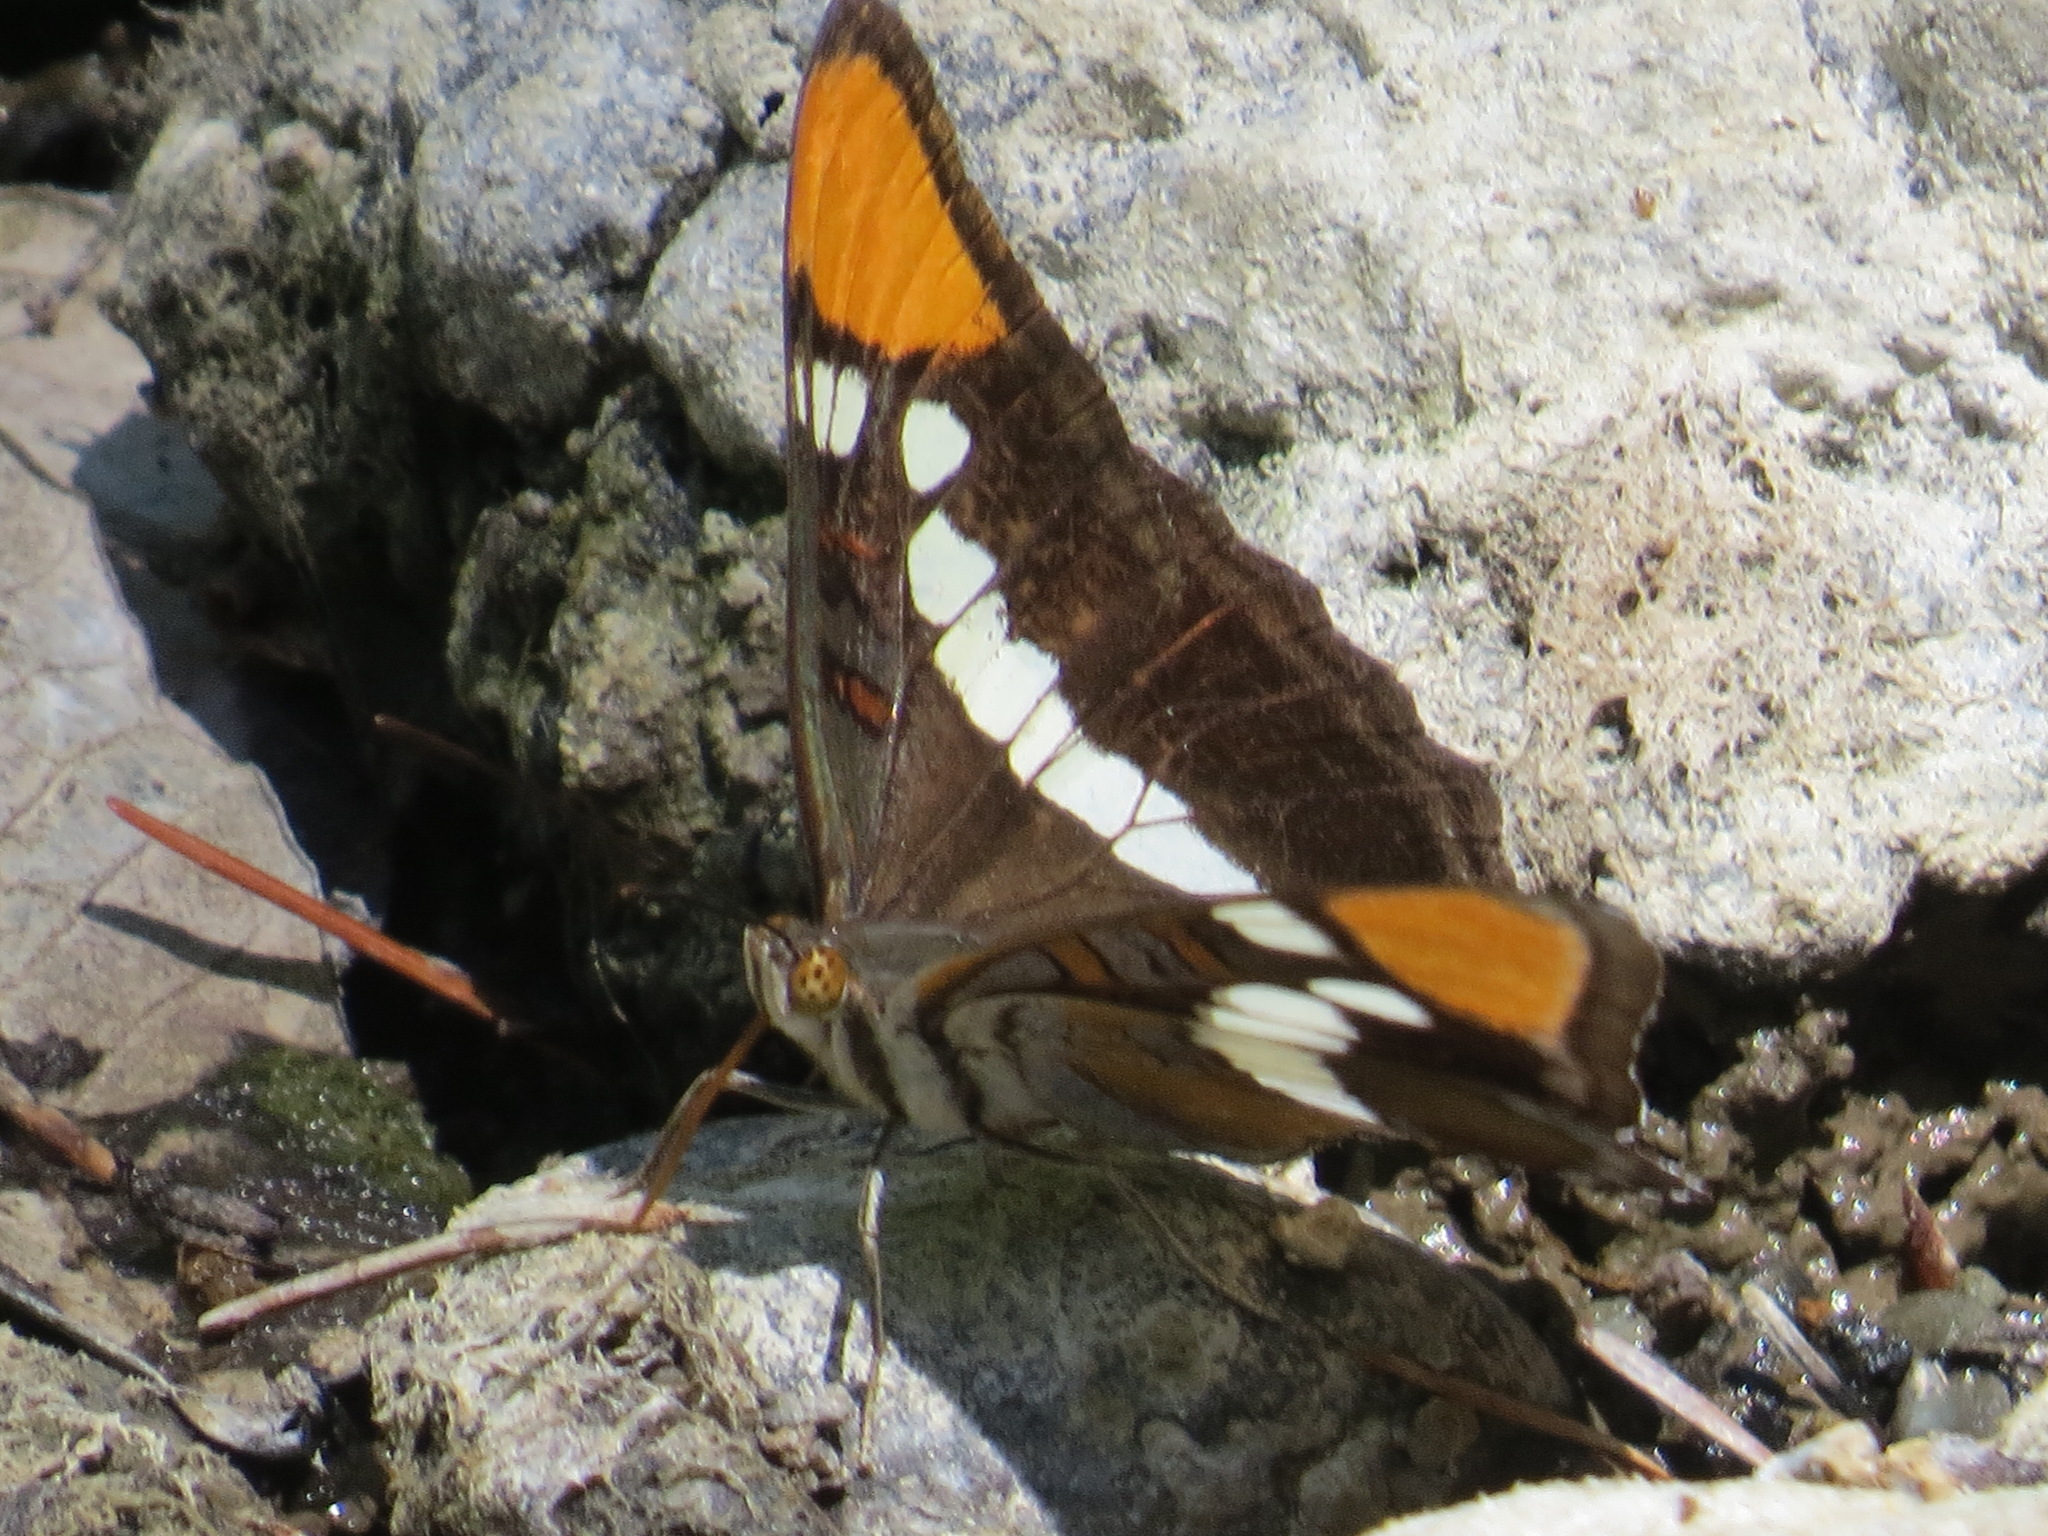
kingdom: Animalia
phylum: Arthropoda
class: Insecta
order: Lepidoptera
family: Nymphalidae
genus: Limenitis
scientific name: Limenitis bredowii
